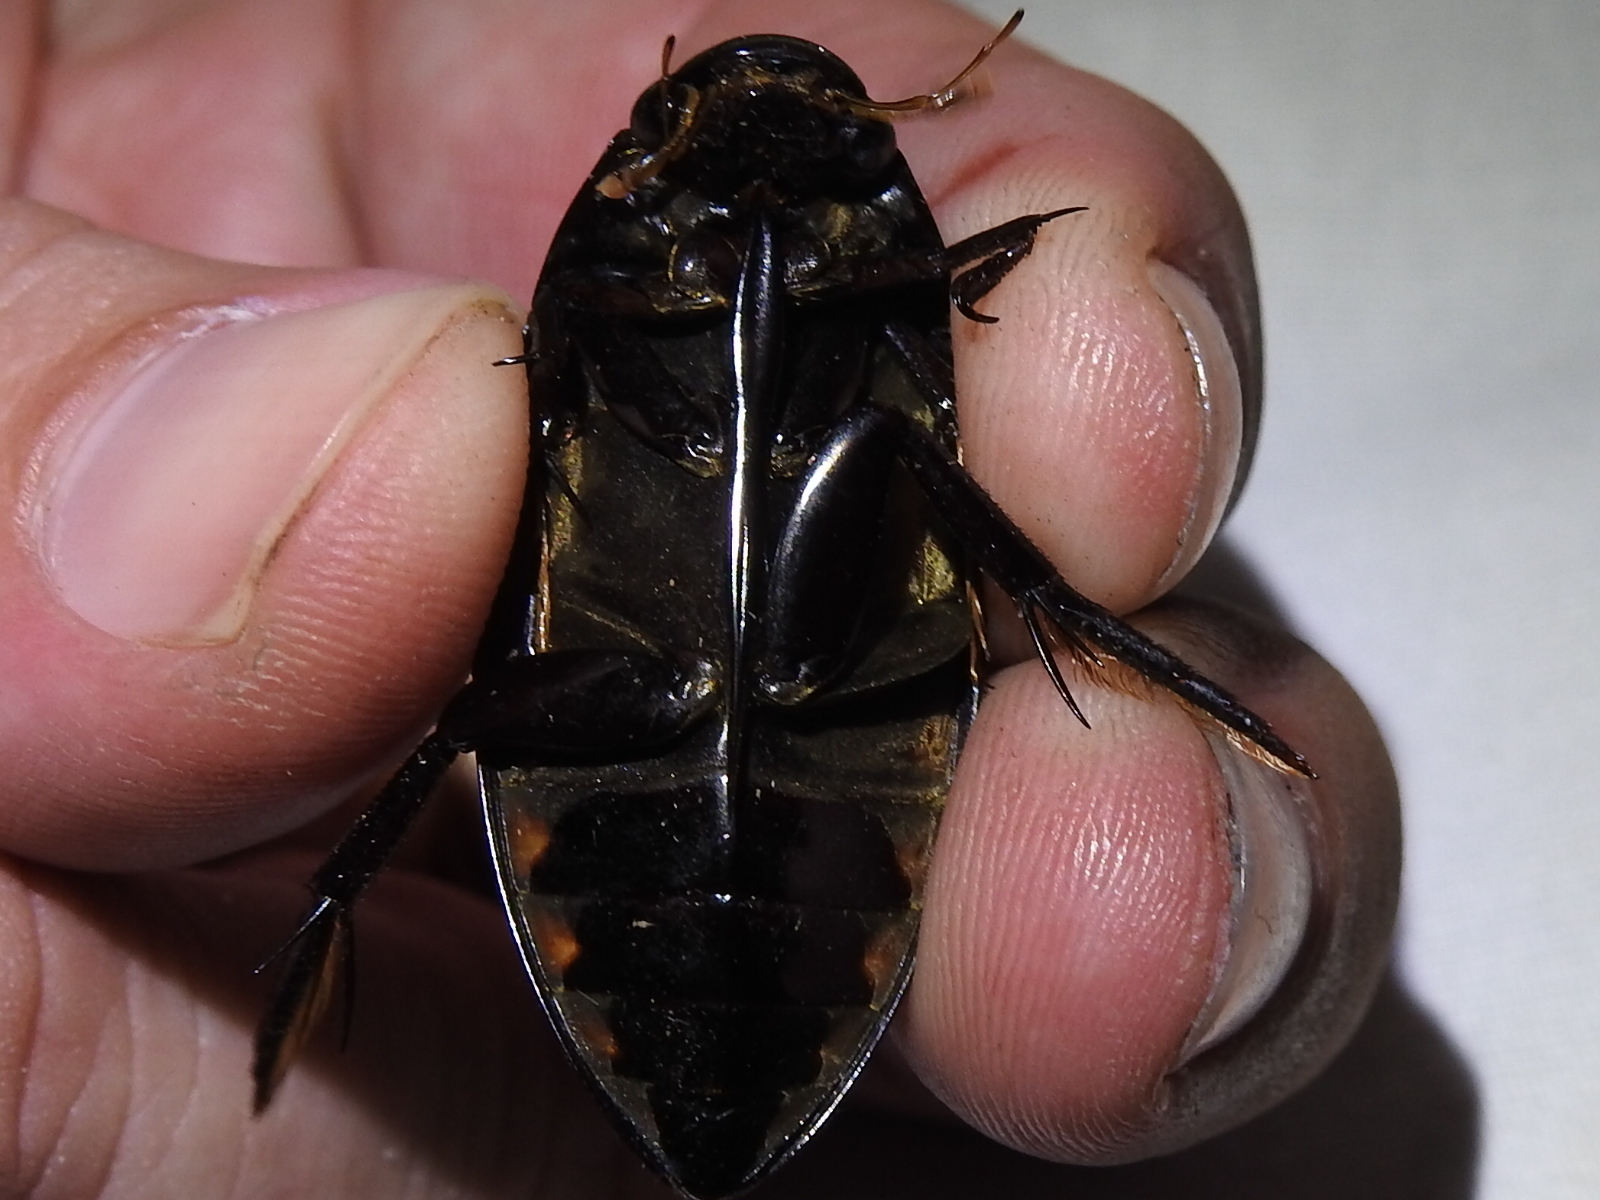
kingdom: Animalia
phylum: Arthropoda
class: Insecta
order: Coleoptera
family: Hydrophilidae
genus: Hydrophilus
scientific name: Hydrophilus triangularis
